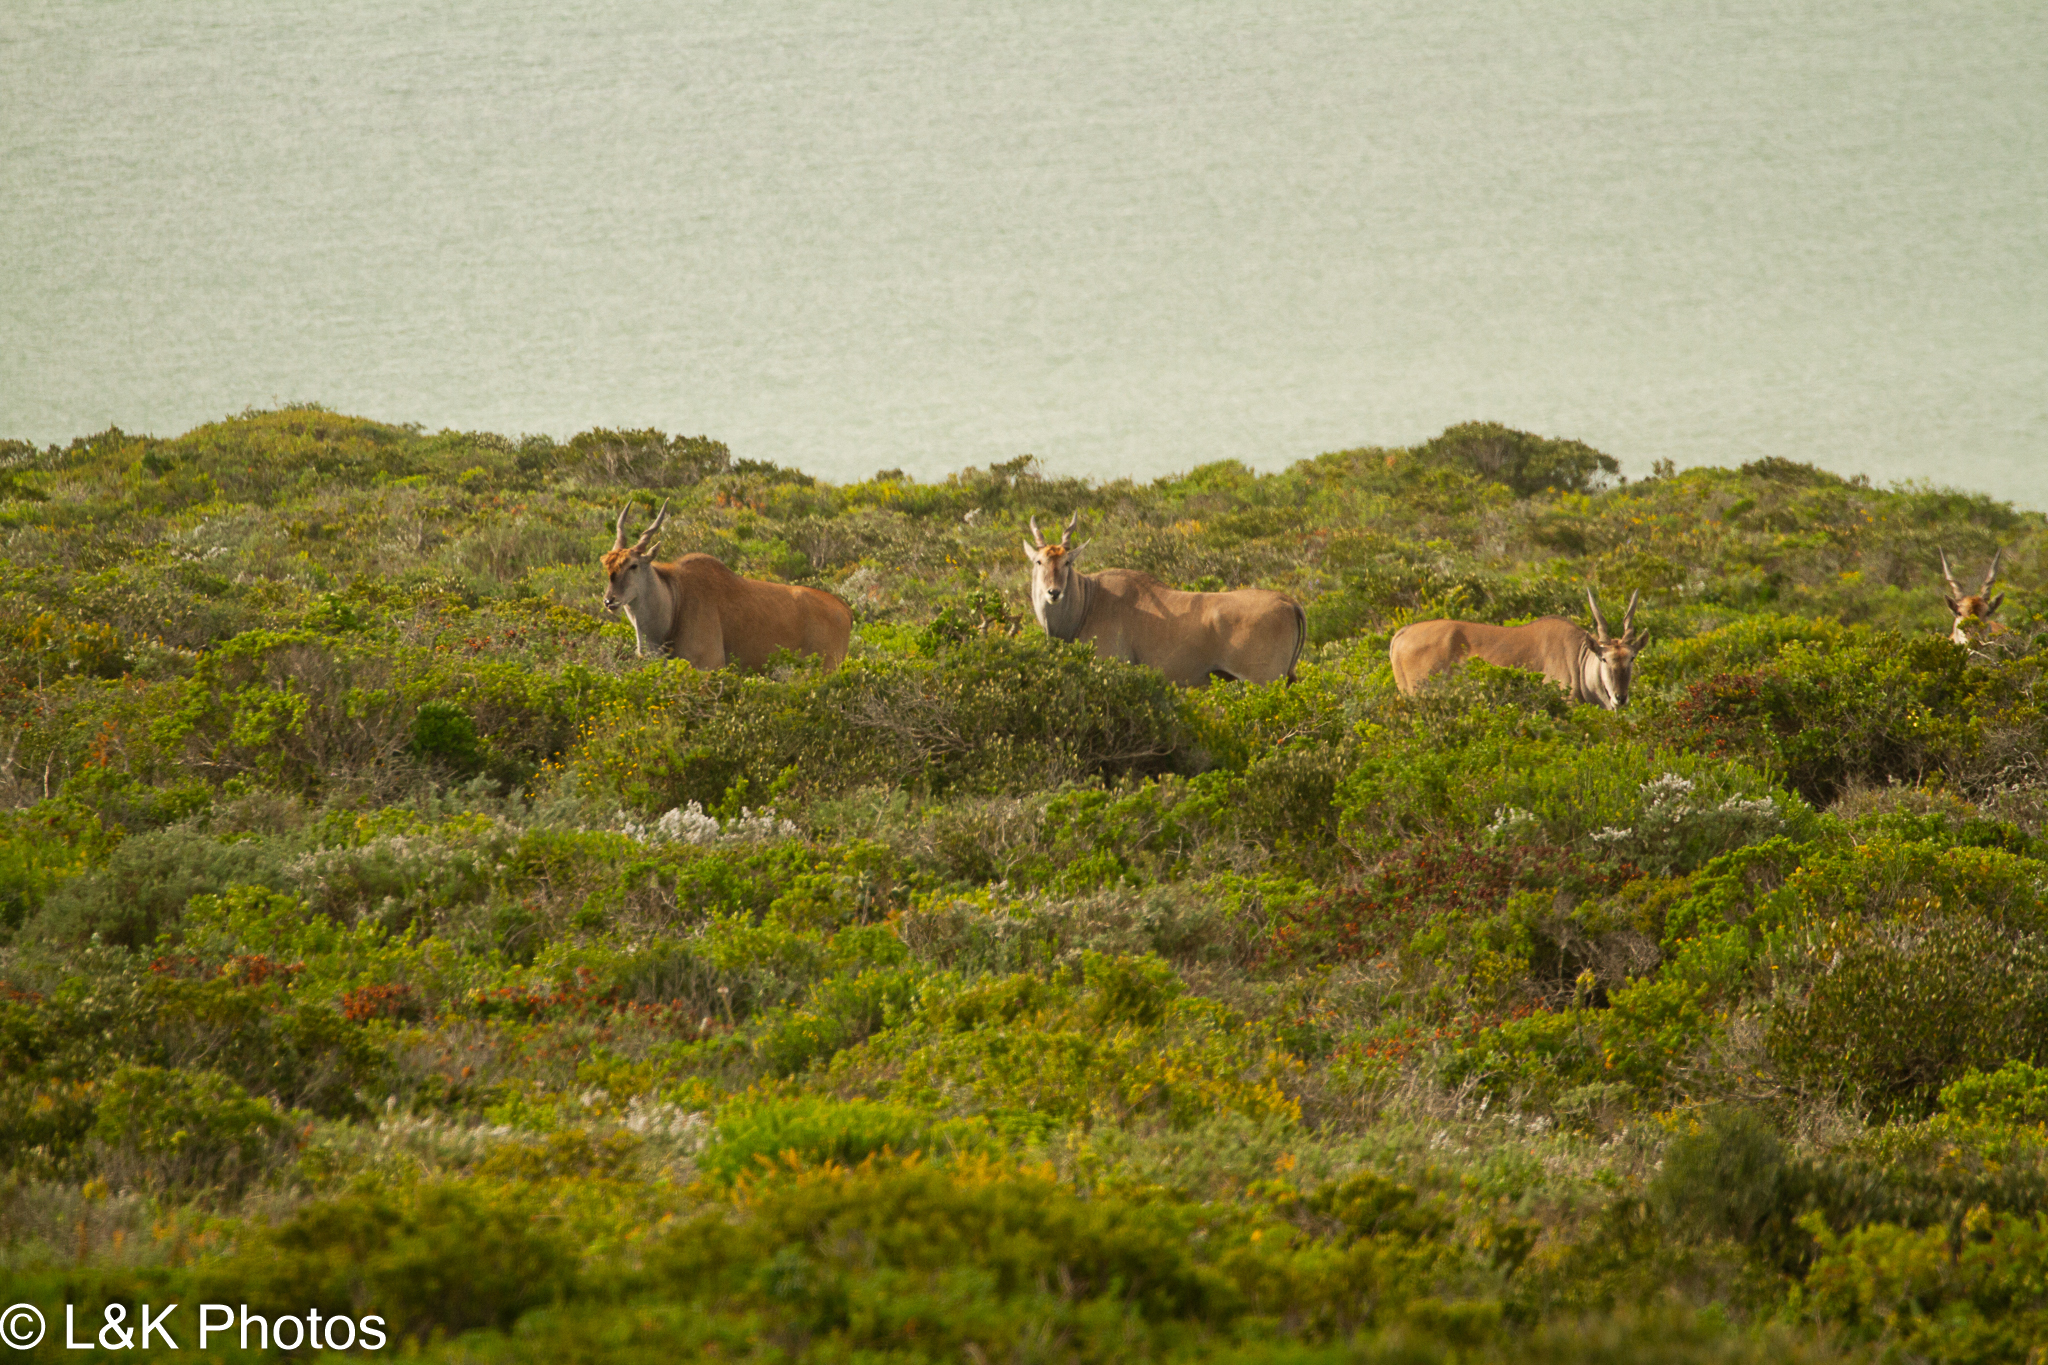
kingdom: Animalia
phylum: Chordata
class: Mammalia
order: Artiodactyla
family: Bovidae
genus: Taurotragus
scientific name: Taurotragus oryx
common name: Common eland
